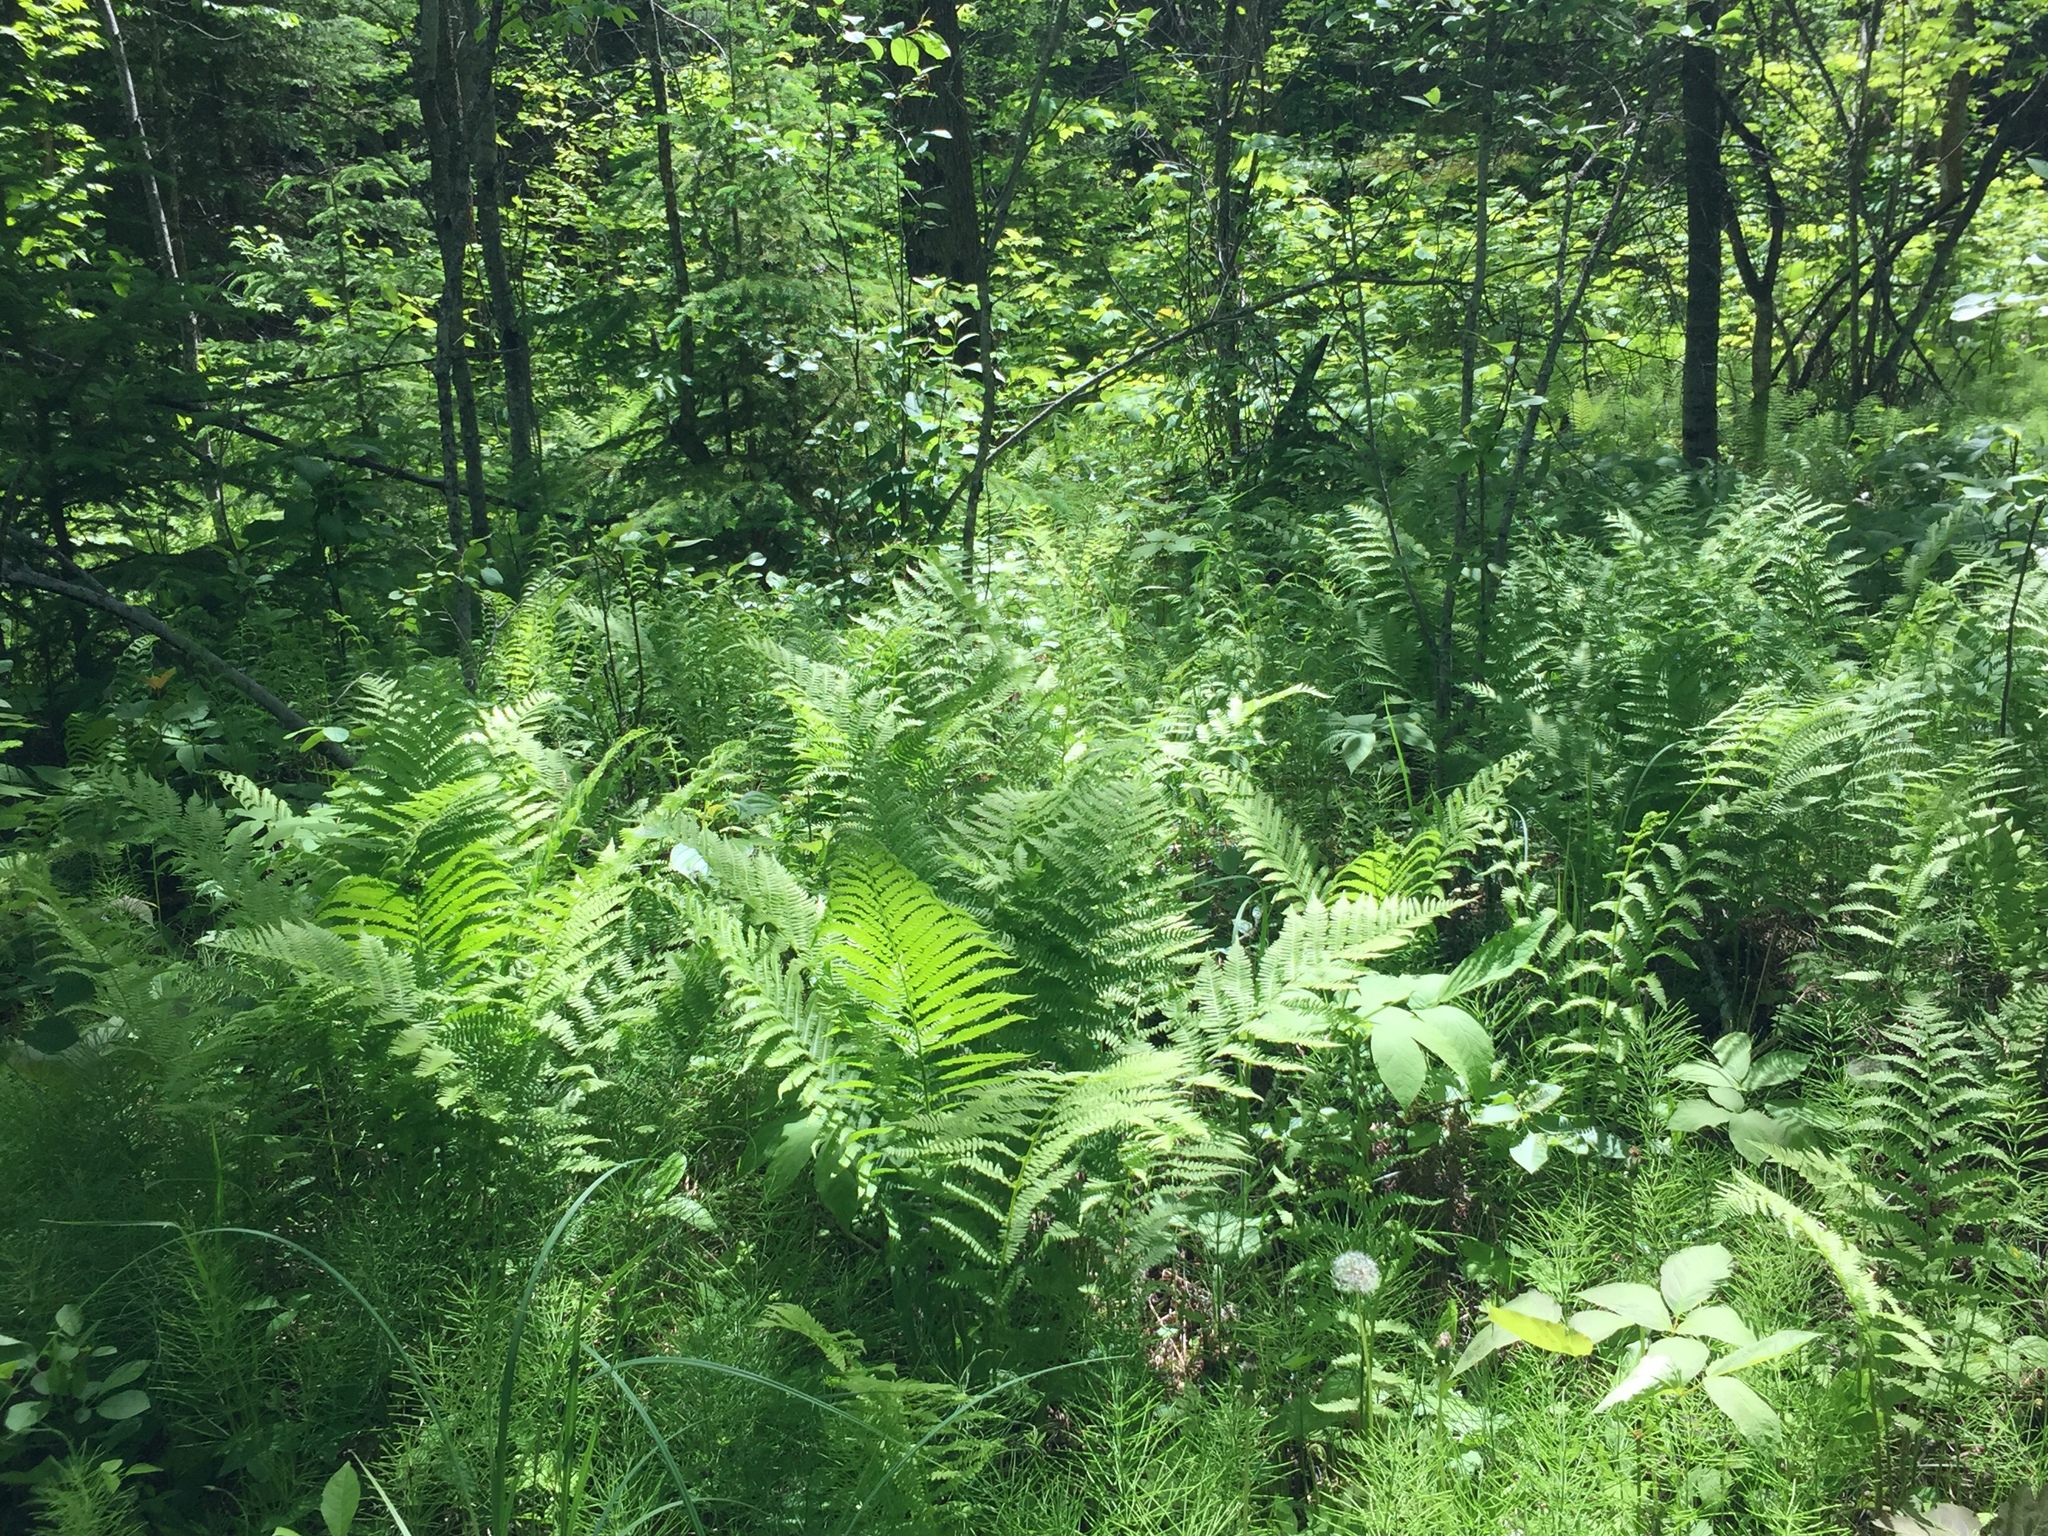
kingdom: Plantae
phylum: Tracheophyta
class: Polypodiopsida
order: Polypodiales
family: Onocleaceae
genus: Matteuccia
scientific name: Matteuccia struthiopteris
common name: Ostrich fern
